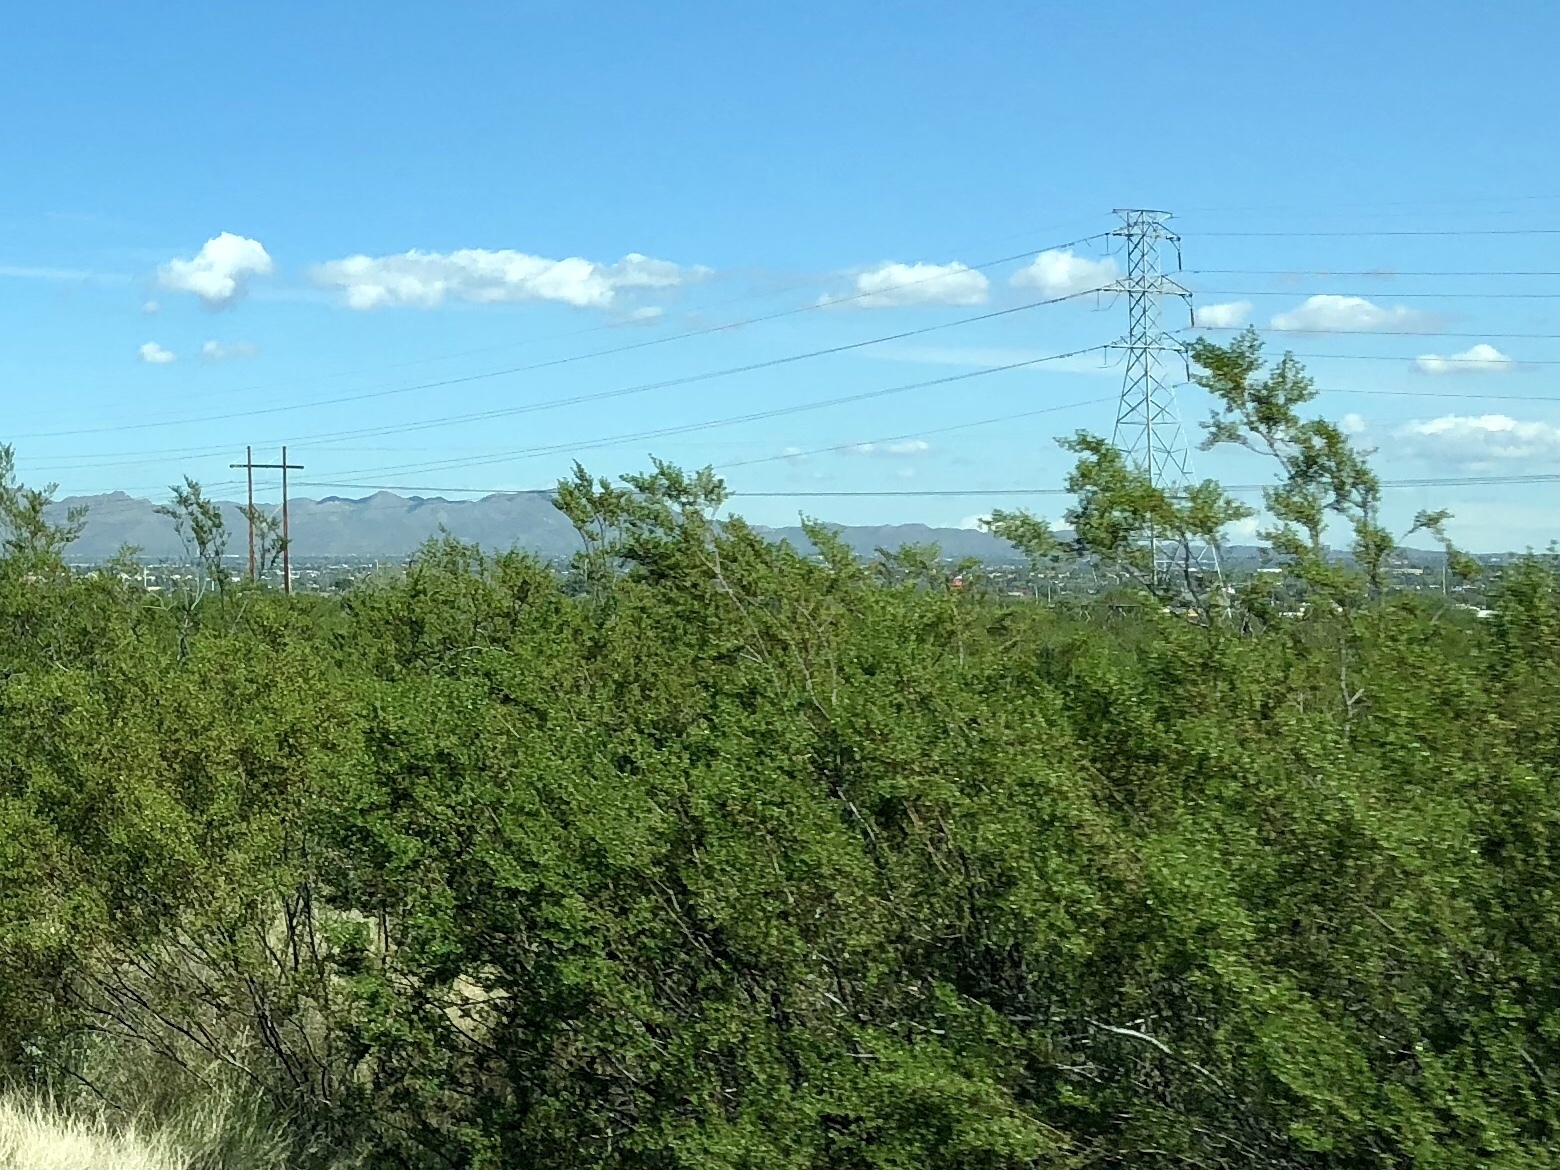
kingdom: Plantae
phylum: Tracheophyta
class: Magnoliopsida
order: Zygophyllales
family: Zygophyllaceae
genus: Larrea
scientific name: Larrea tridentata
